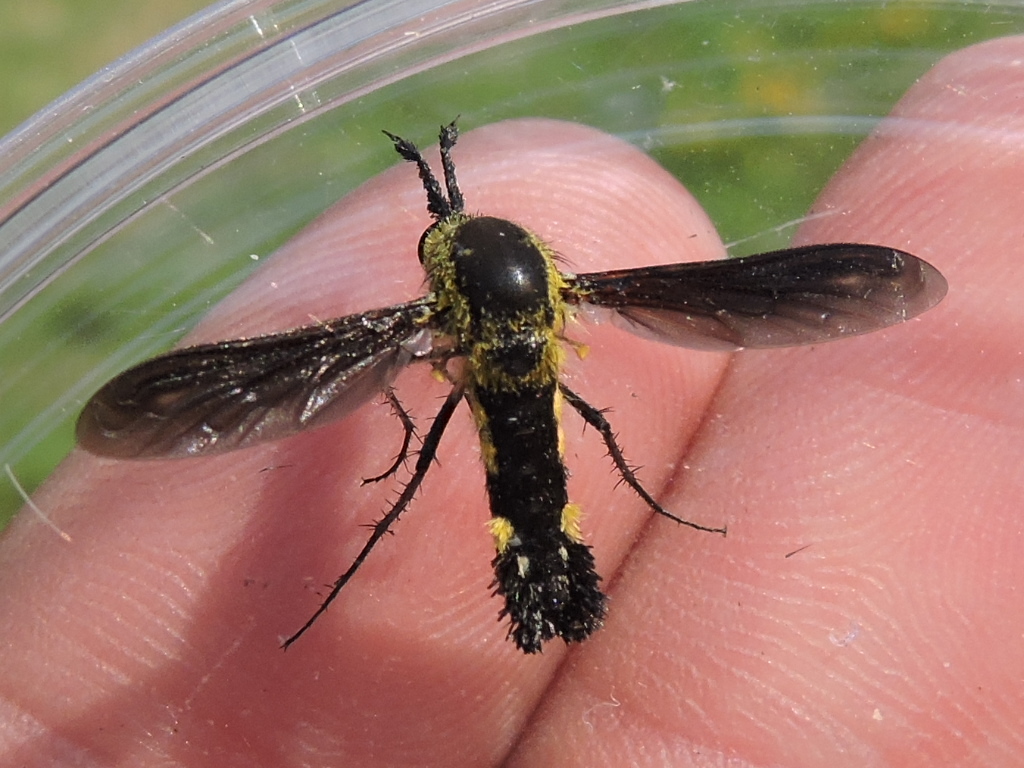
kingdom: Animalia
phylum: Arthropoda
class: Insecta
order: Diptera
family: Bombyliidae
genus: Lepidophora
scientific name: Lepidophora lepidocera
